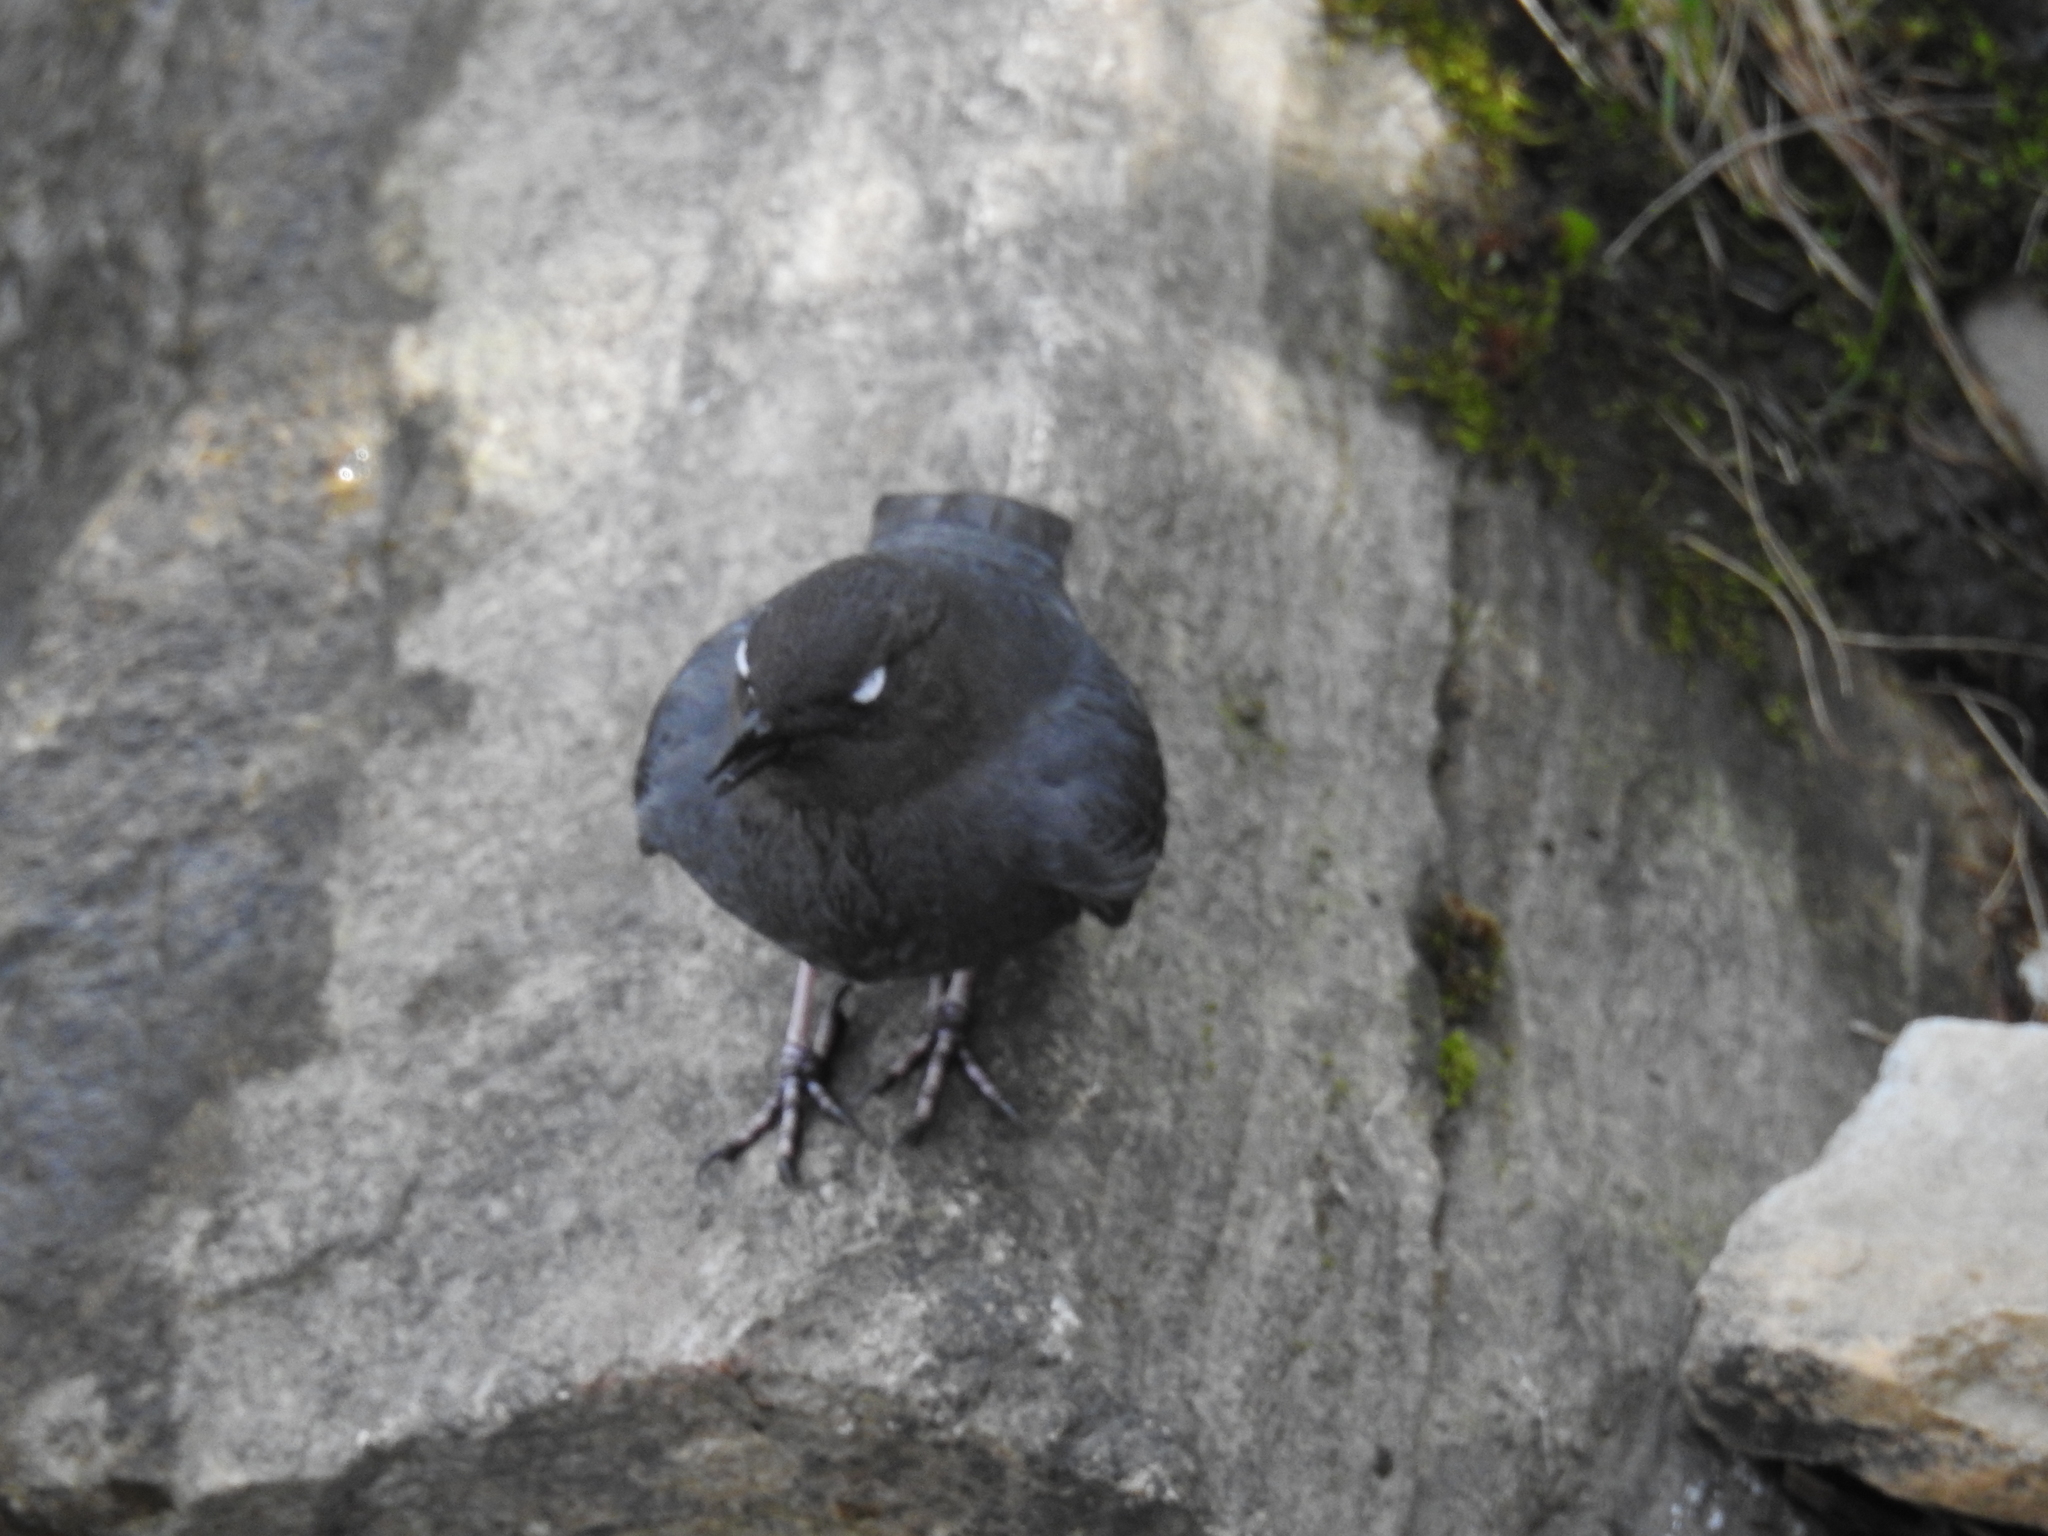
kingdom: Animalia
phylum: Chordata
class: Aves
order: Passeriformes
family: Cinclidae
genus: Cinclus
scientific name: Cinclus mexicanus
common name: American dipper
